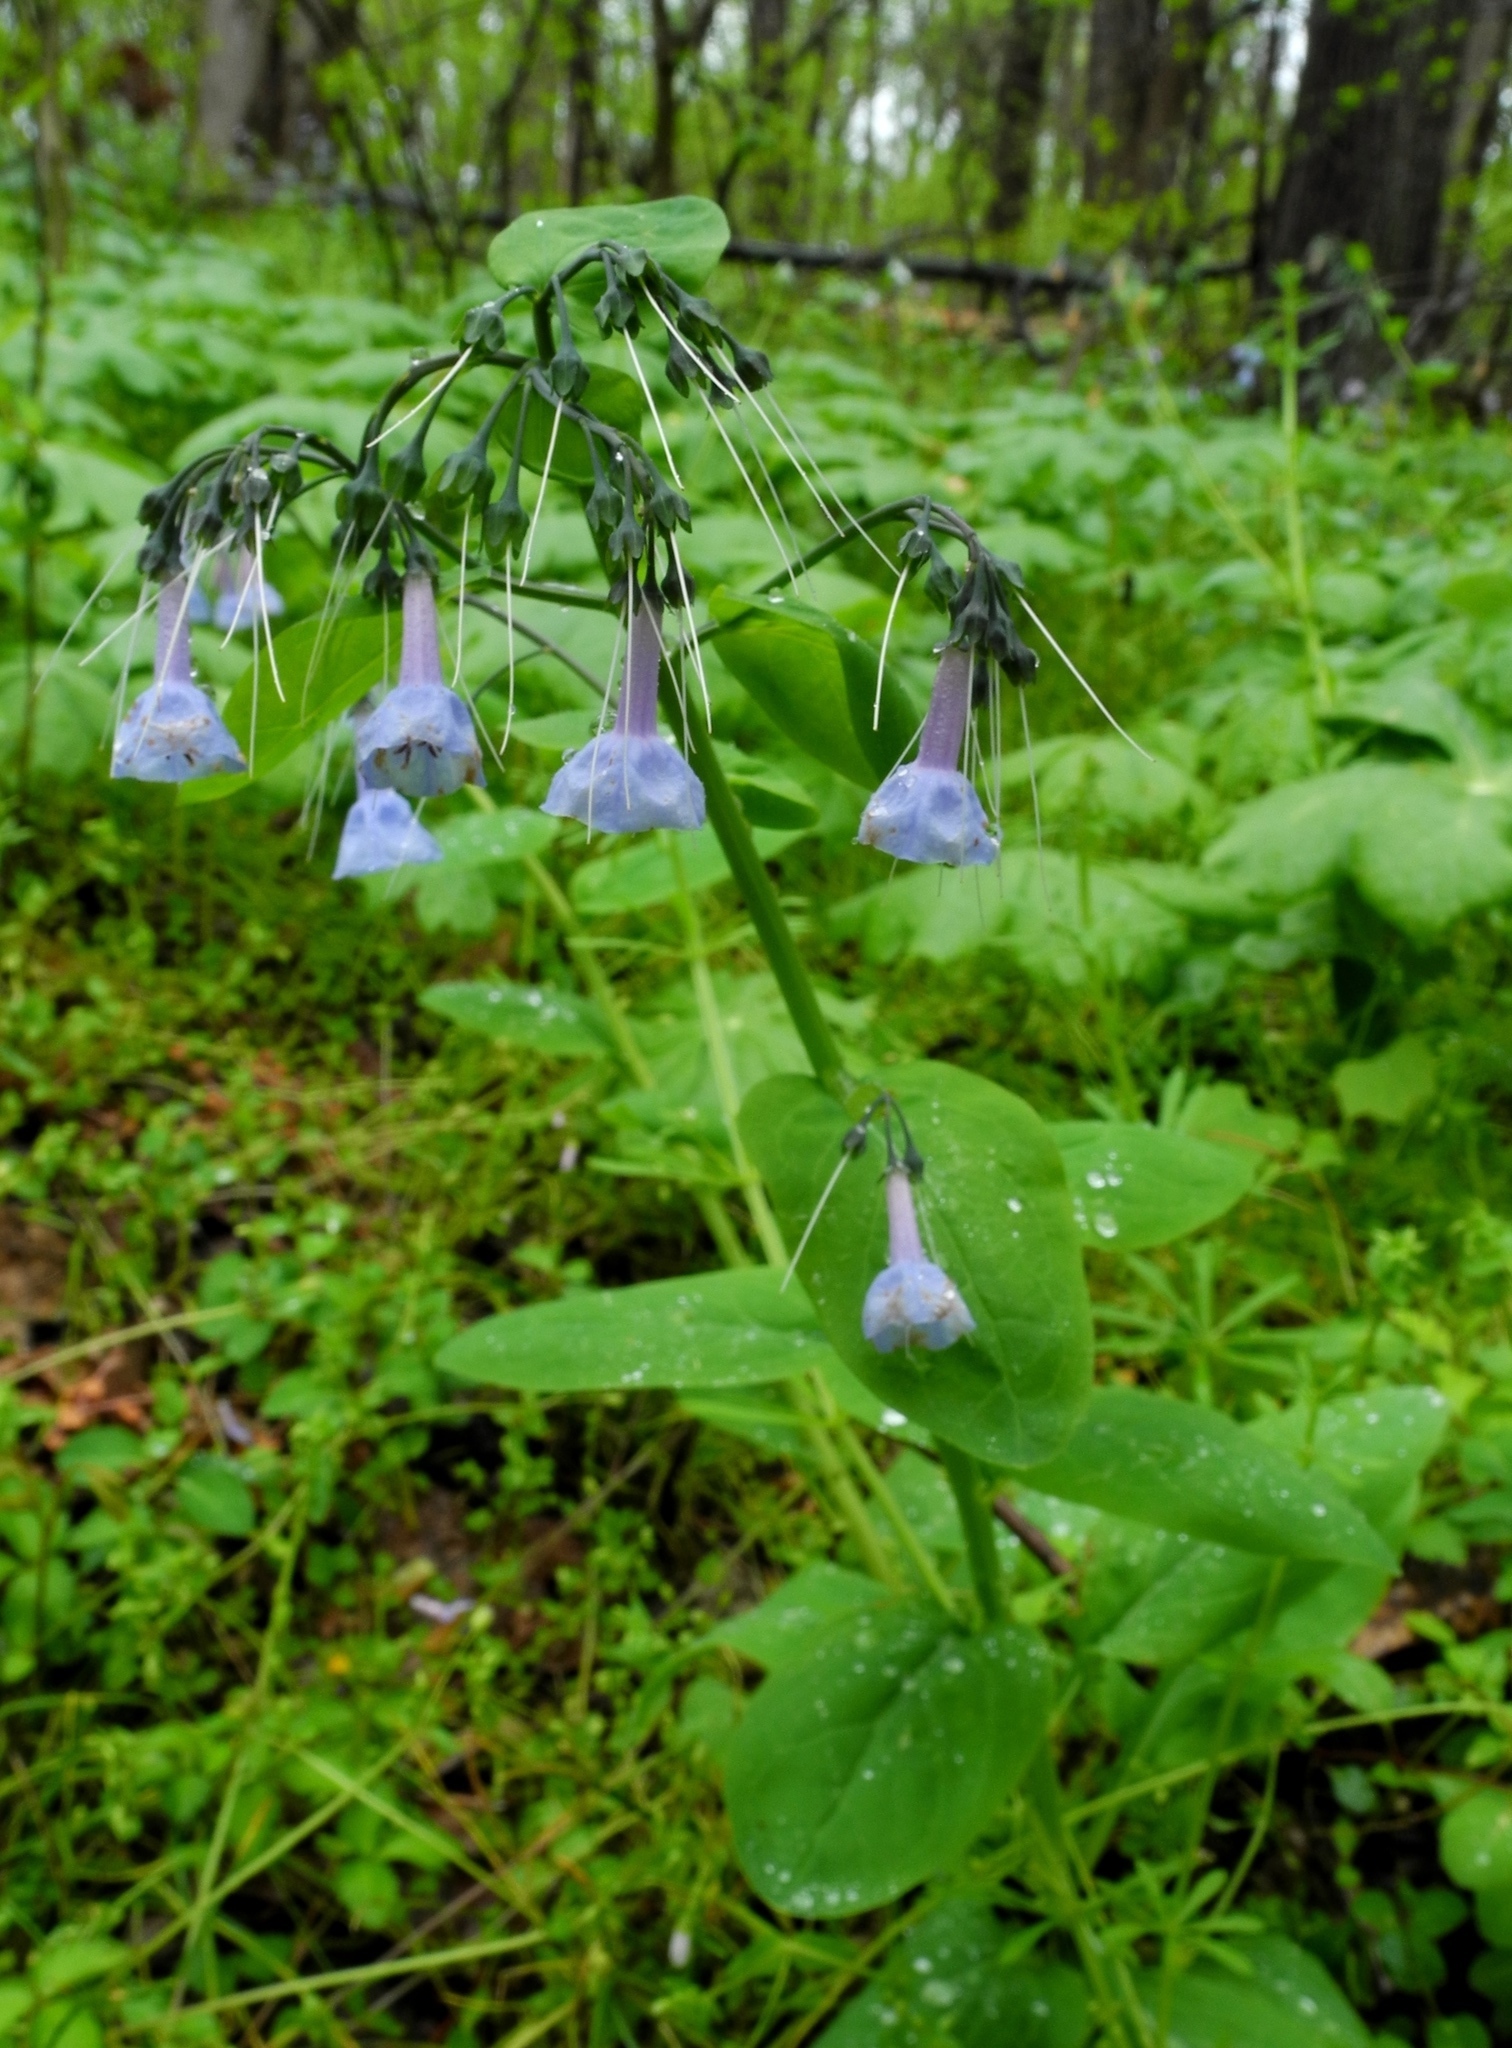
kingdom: Plantae
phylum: Tracheophyta
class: Magnoliopsida
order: Boraginales
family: Boraginaceae
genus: Mertensia
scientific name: Mertensia virginica
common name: Virginia bluebells
